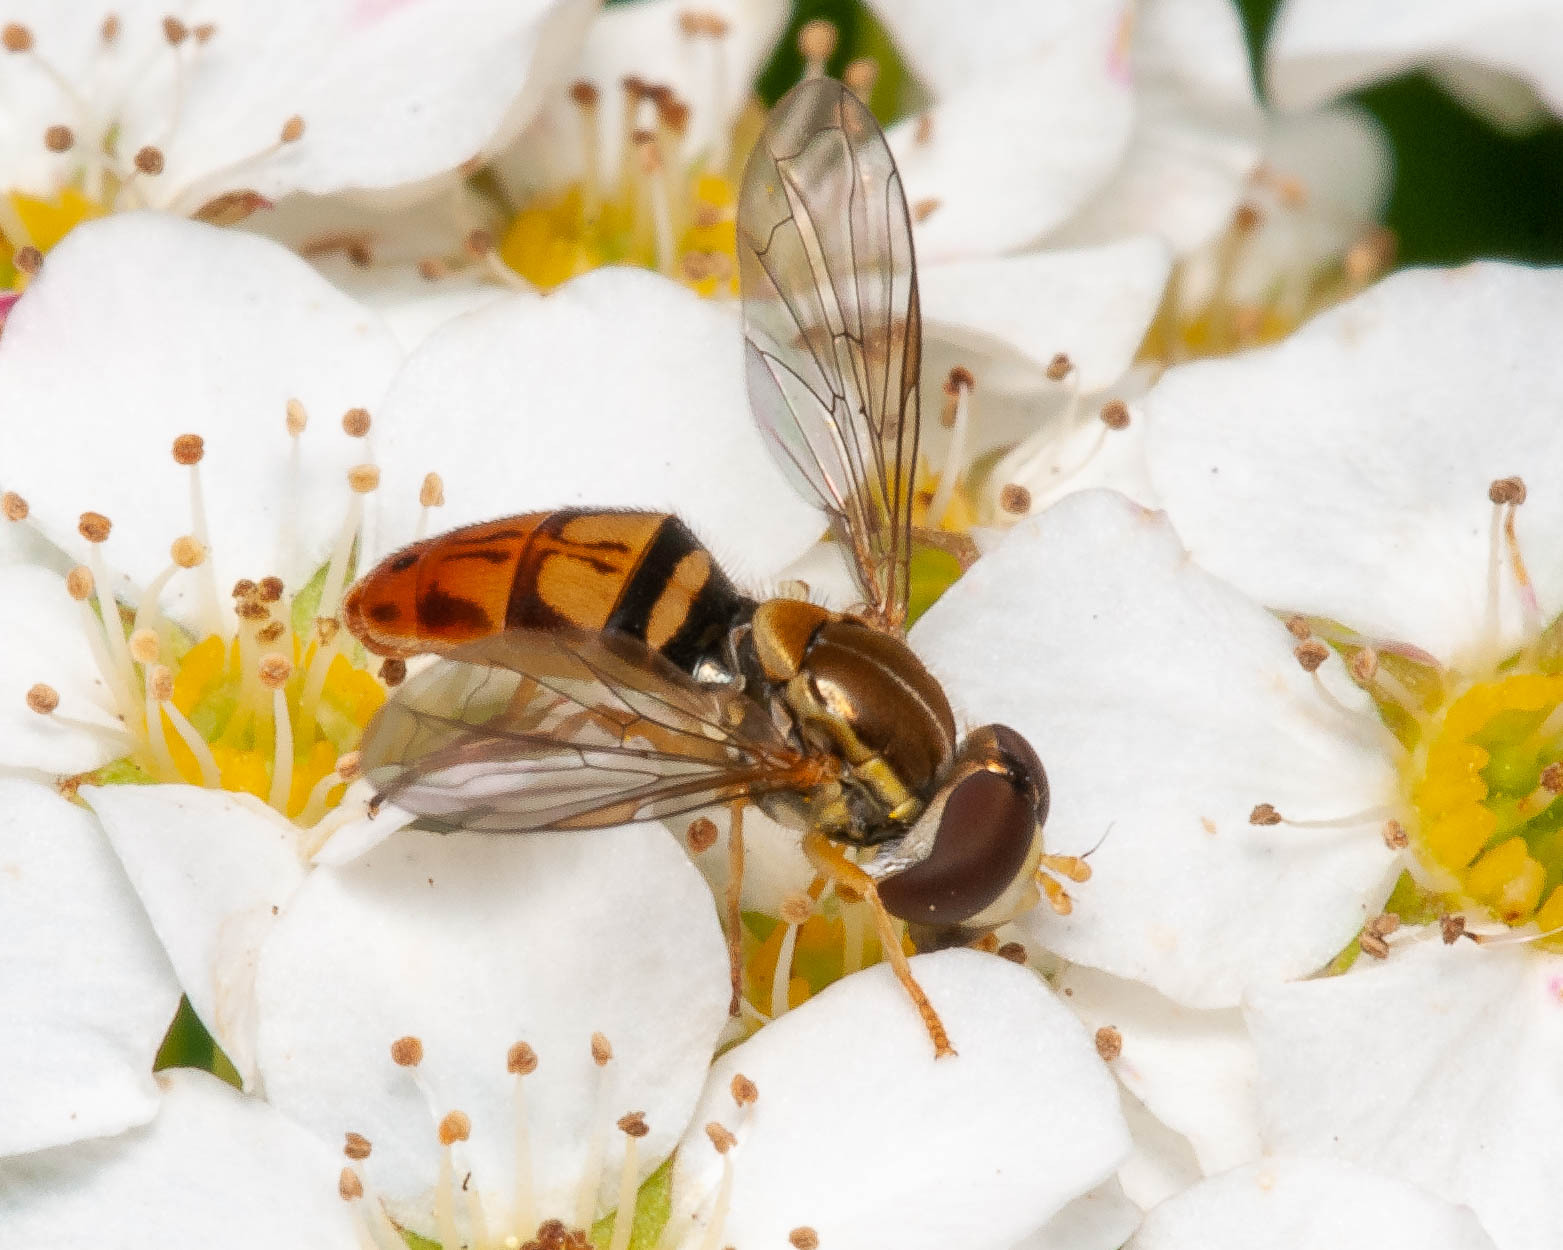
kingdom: Animalia
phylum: Arthropoda
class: Insecta
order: Diptera
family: Syrphidae
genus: Toxomerus
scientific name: Toxomerus marginatus
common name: Syrphid fly
